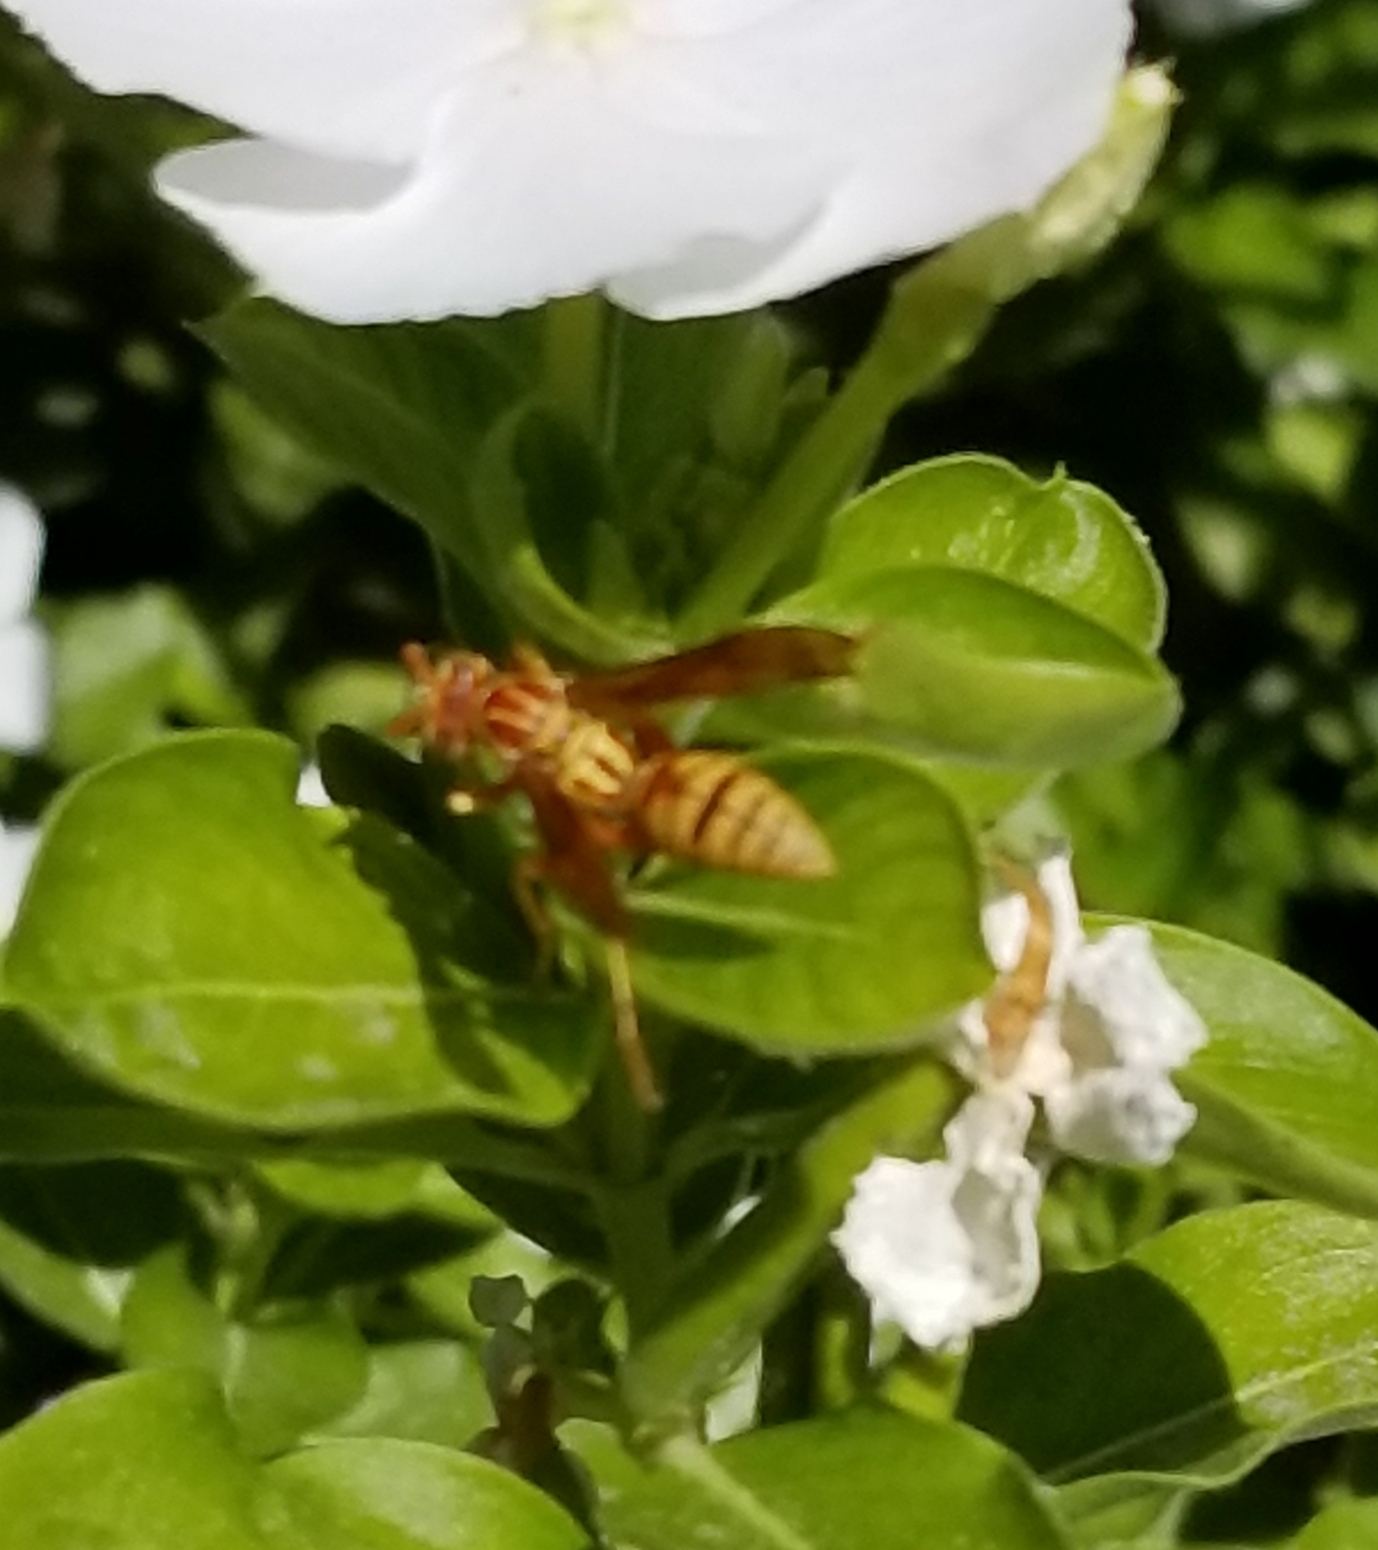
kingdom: Animalia
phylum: Arthropoda
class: Insecta
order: Hymenoptera
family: Eumenidae
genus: Polistes
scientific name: Polistes apachus
